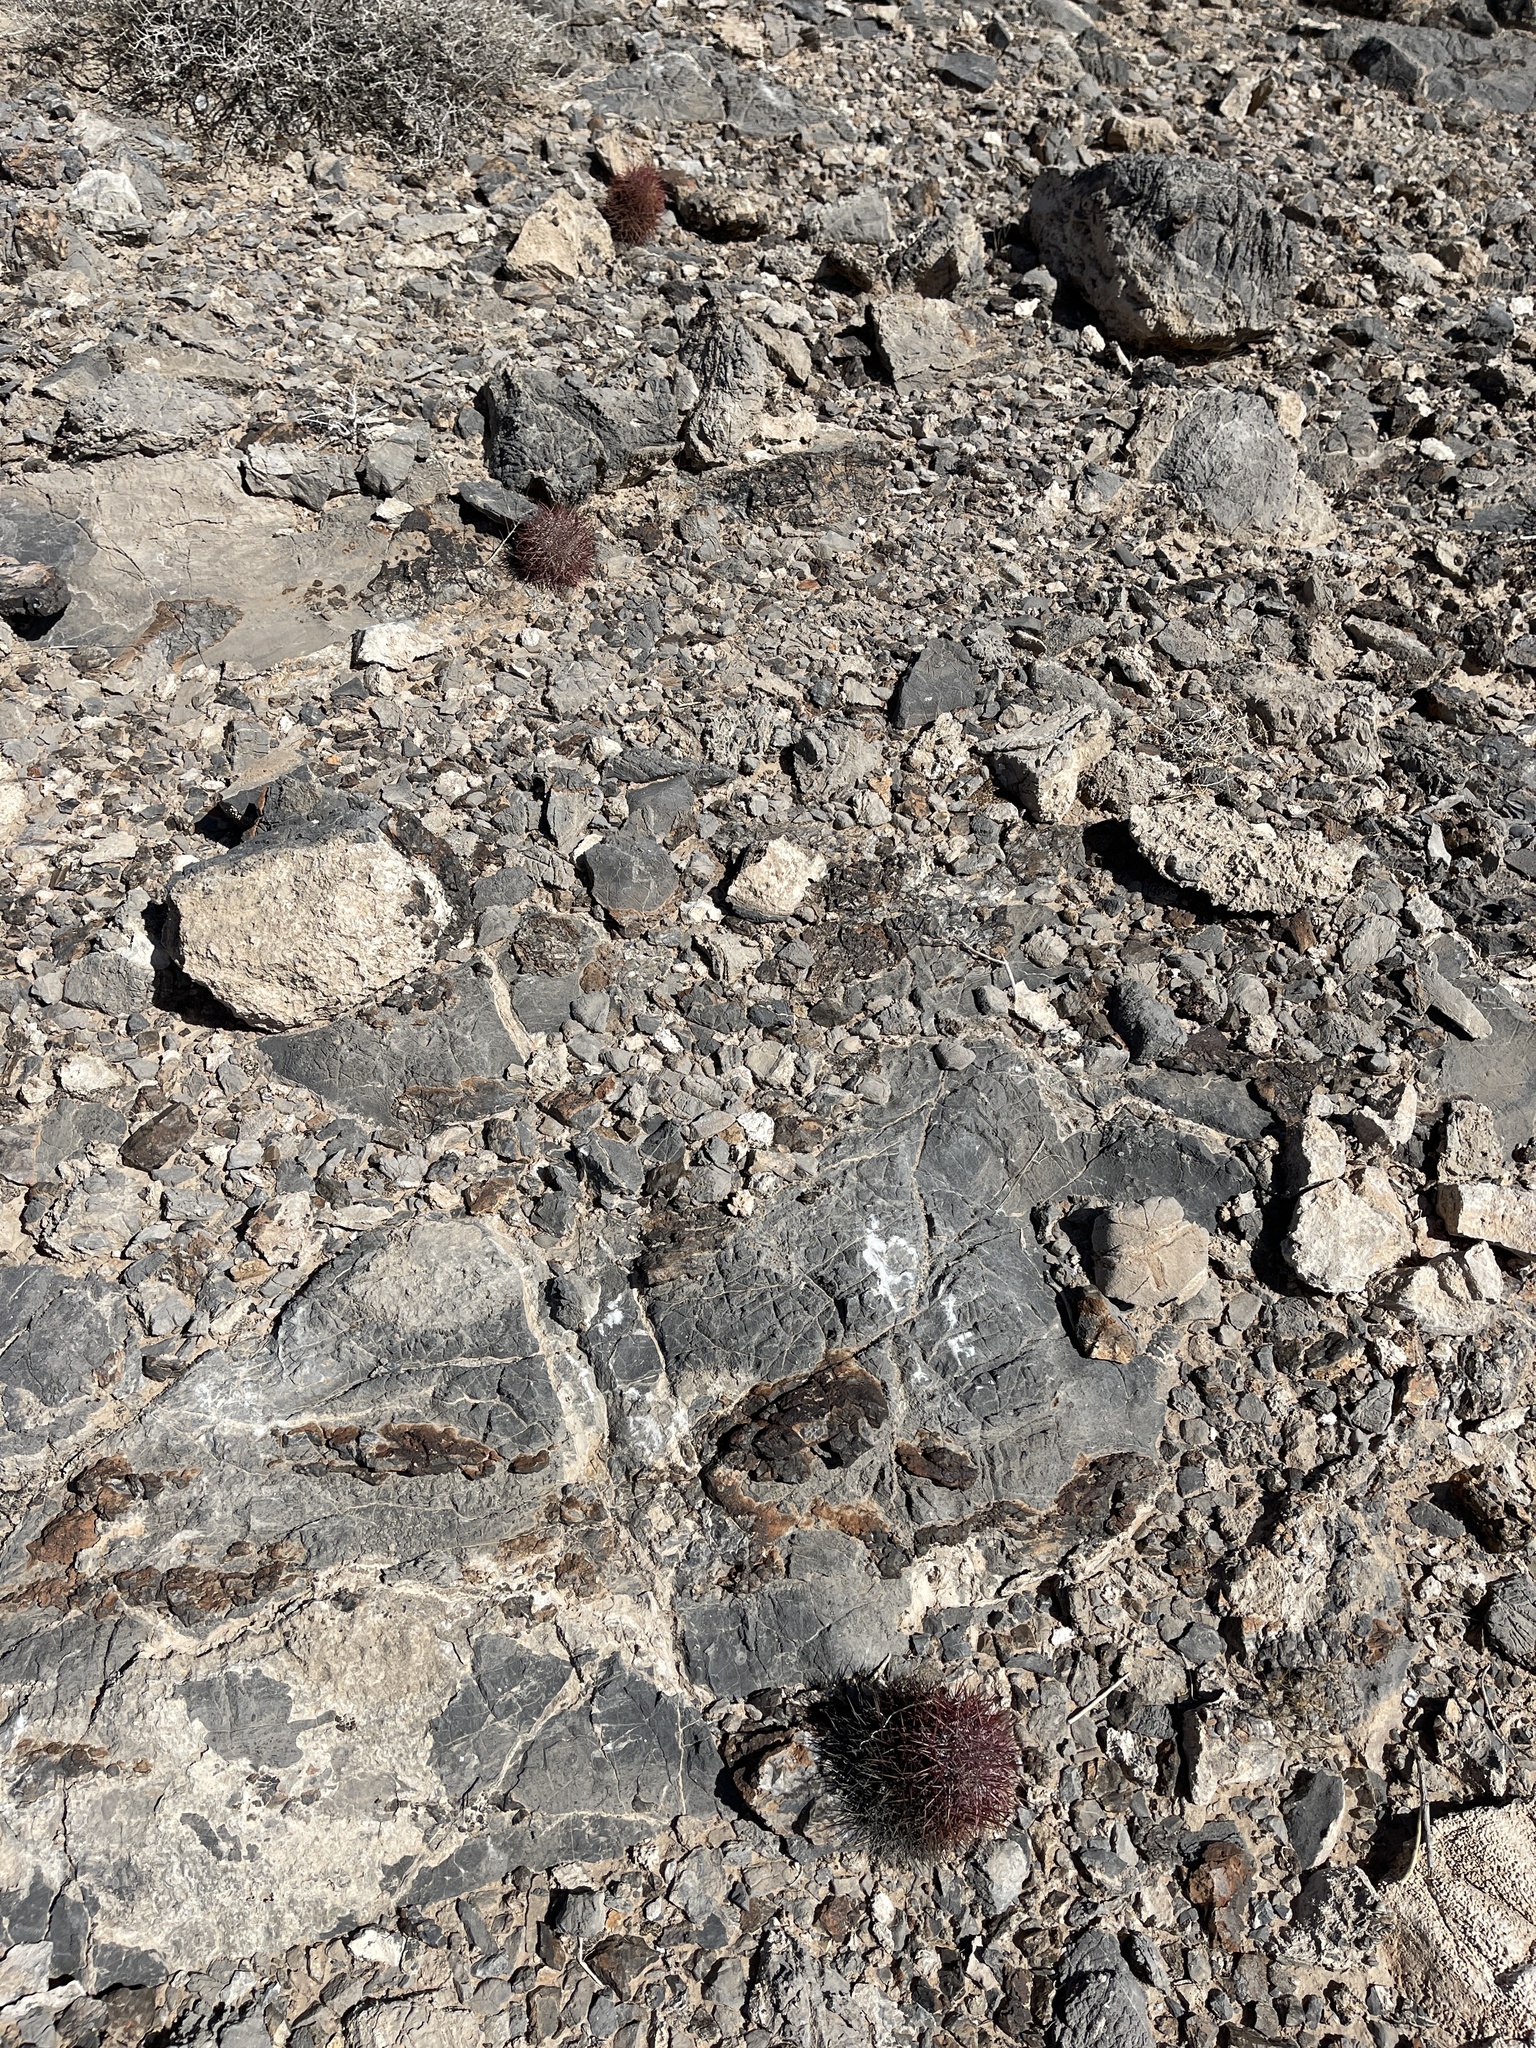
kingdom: Plantae
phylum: Tracheophyta
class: Magnoliopsida
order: Caryophyllales
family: Cactaceae
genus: Sclerocactus
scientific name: Sclerocactus johnsonii
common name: Eight-spine fishhook cactus
